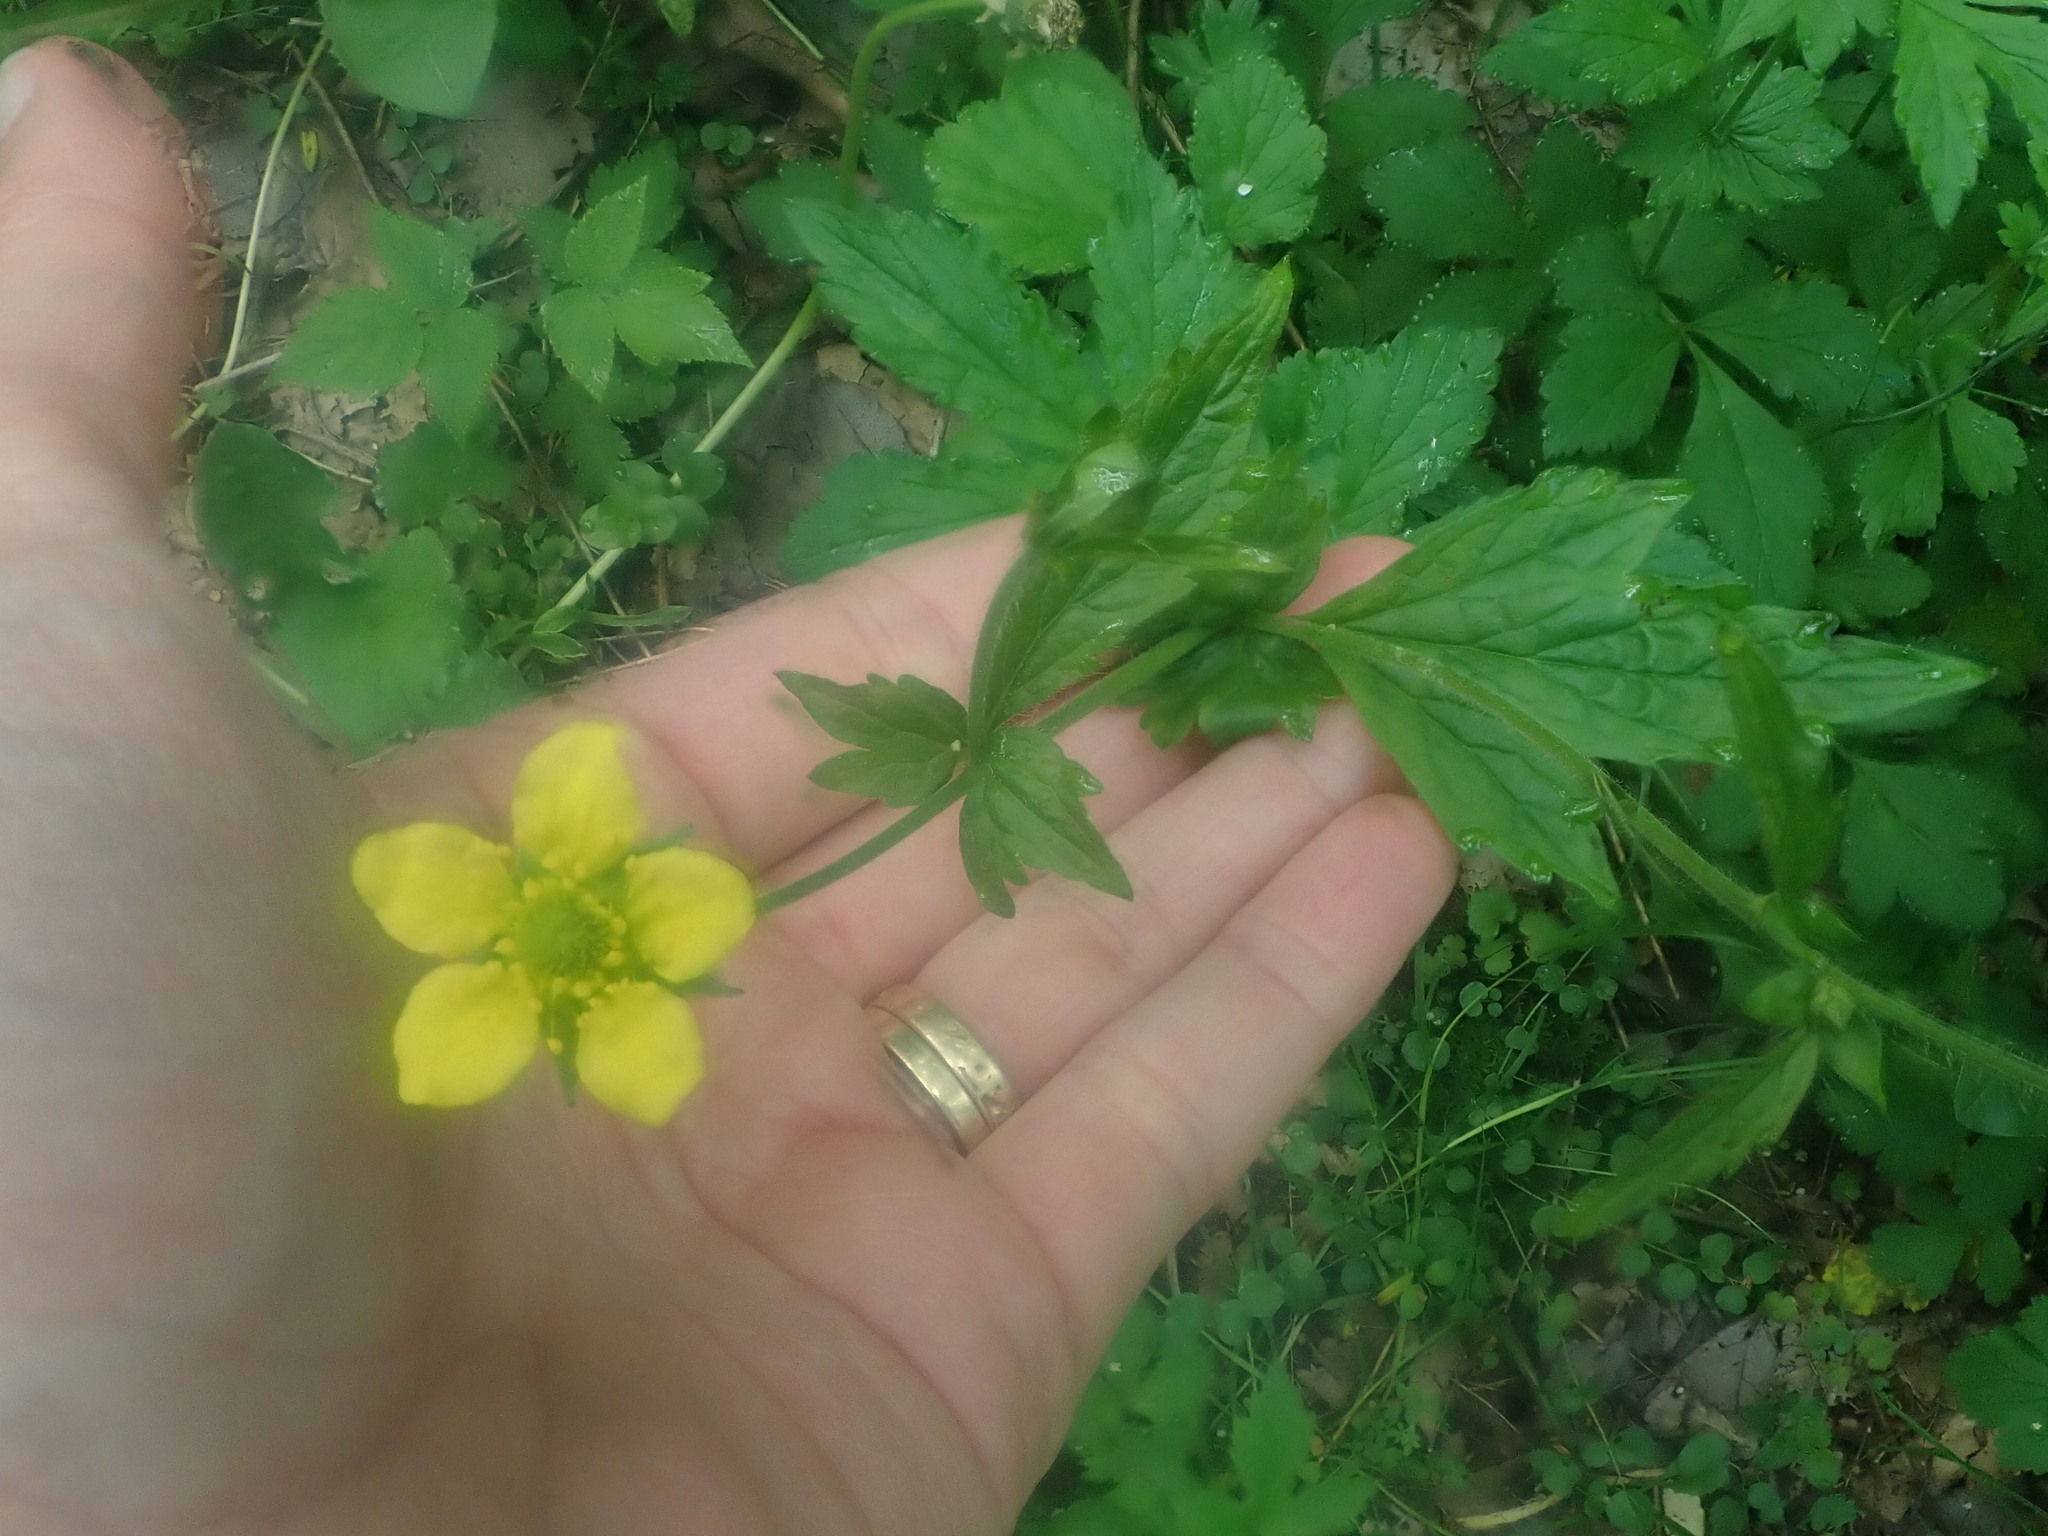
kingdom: Plantae
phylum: Tracheophyta
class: Magnoliopsida
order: Rosales
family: Rosaceae
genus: Geum
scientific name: Geum urbanum
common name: Wood avens
